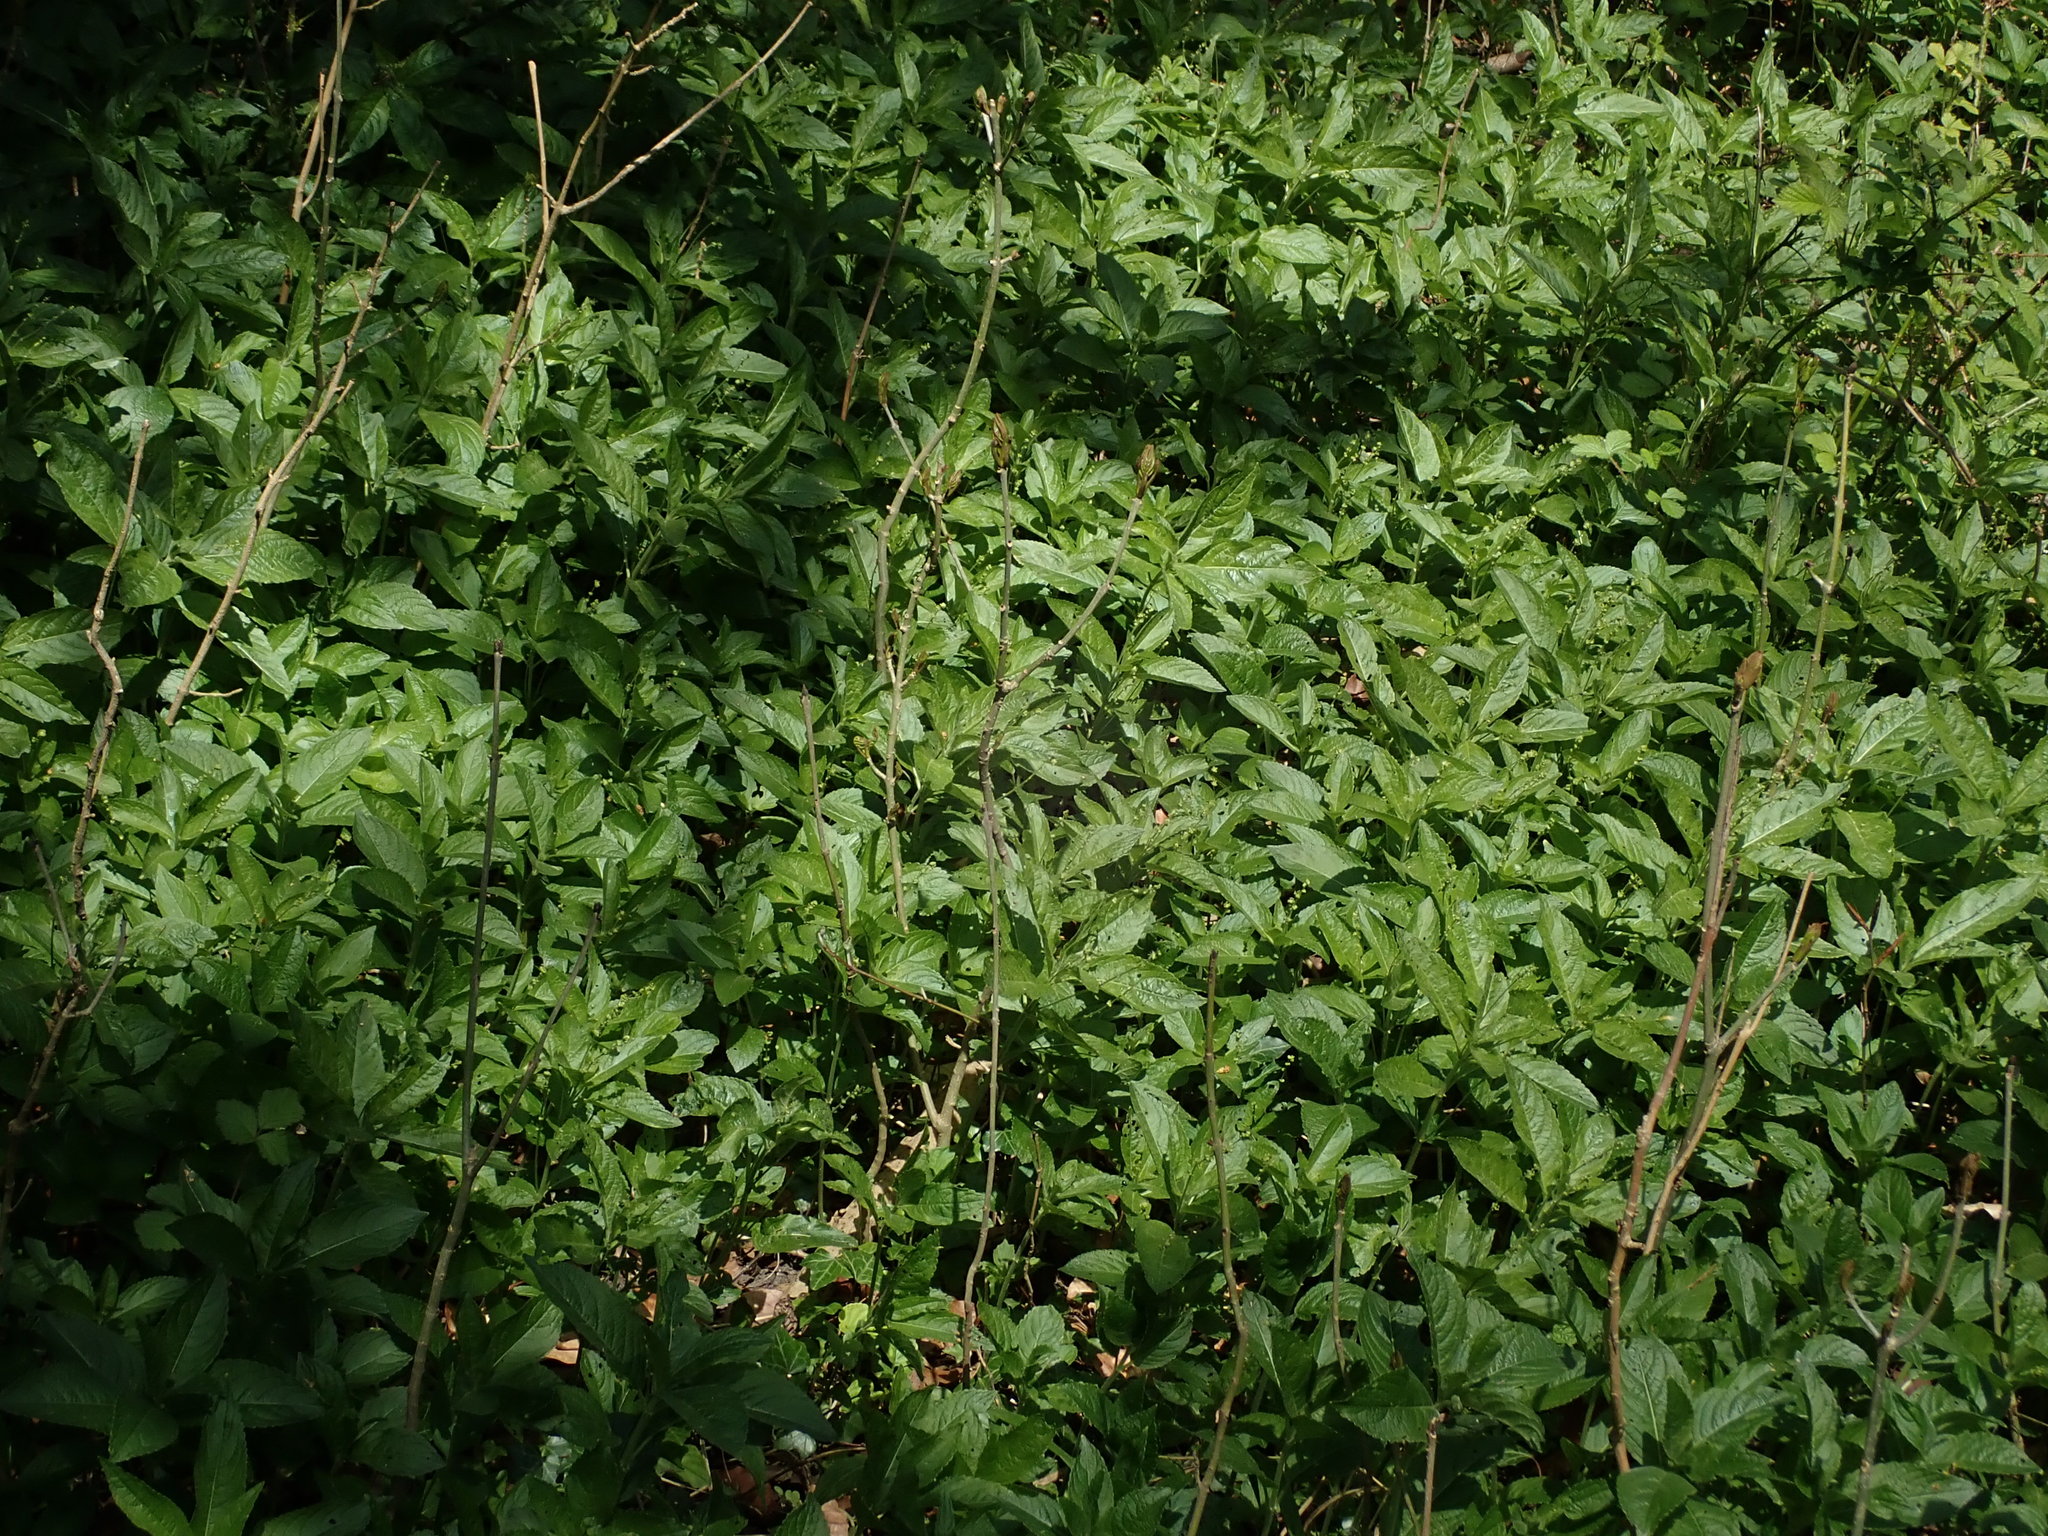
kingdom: Plantae
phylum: Tracheophyta
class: Magnoliopsida
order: Malpighiales
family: Euphorbiaceae
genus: Mercurialis
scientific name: Mercurialis perennis
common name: Dog mercury
